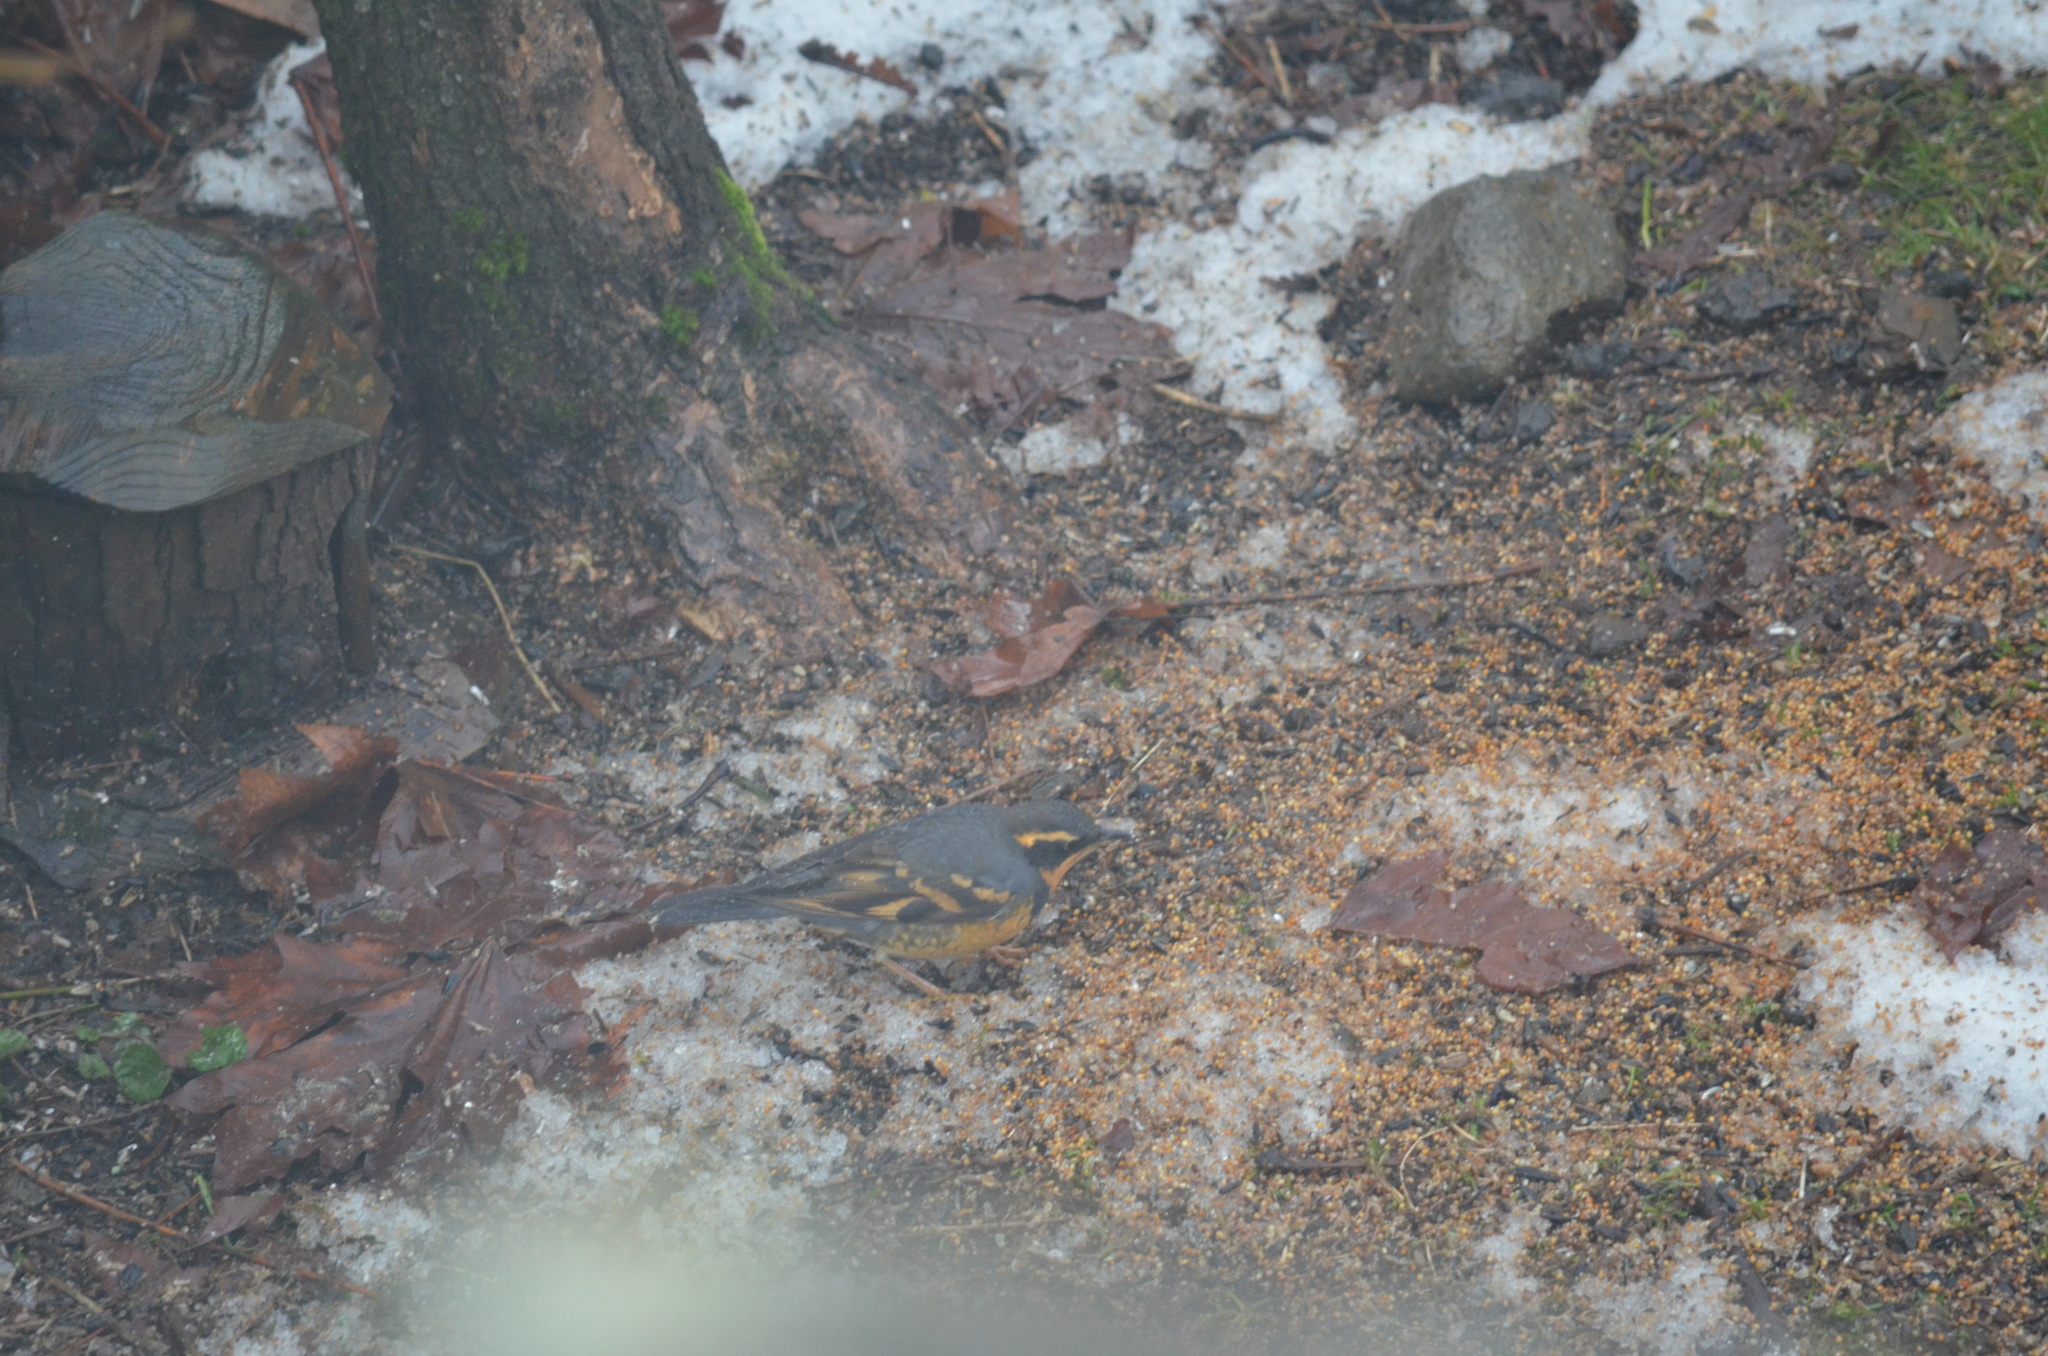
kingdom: Animalia
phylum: Chordata
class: Aves
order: Passeriformes
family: Turdidae
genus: Ixoreus
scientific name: Ixoreus naevius
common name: Varied thrush
